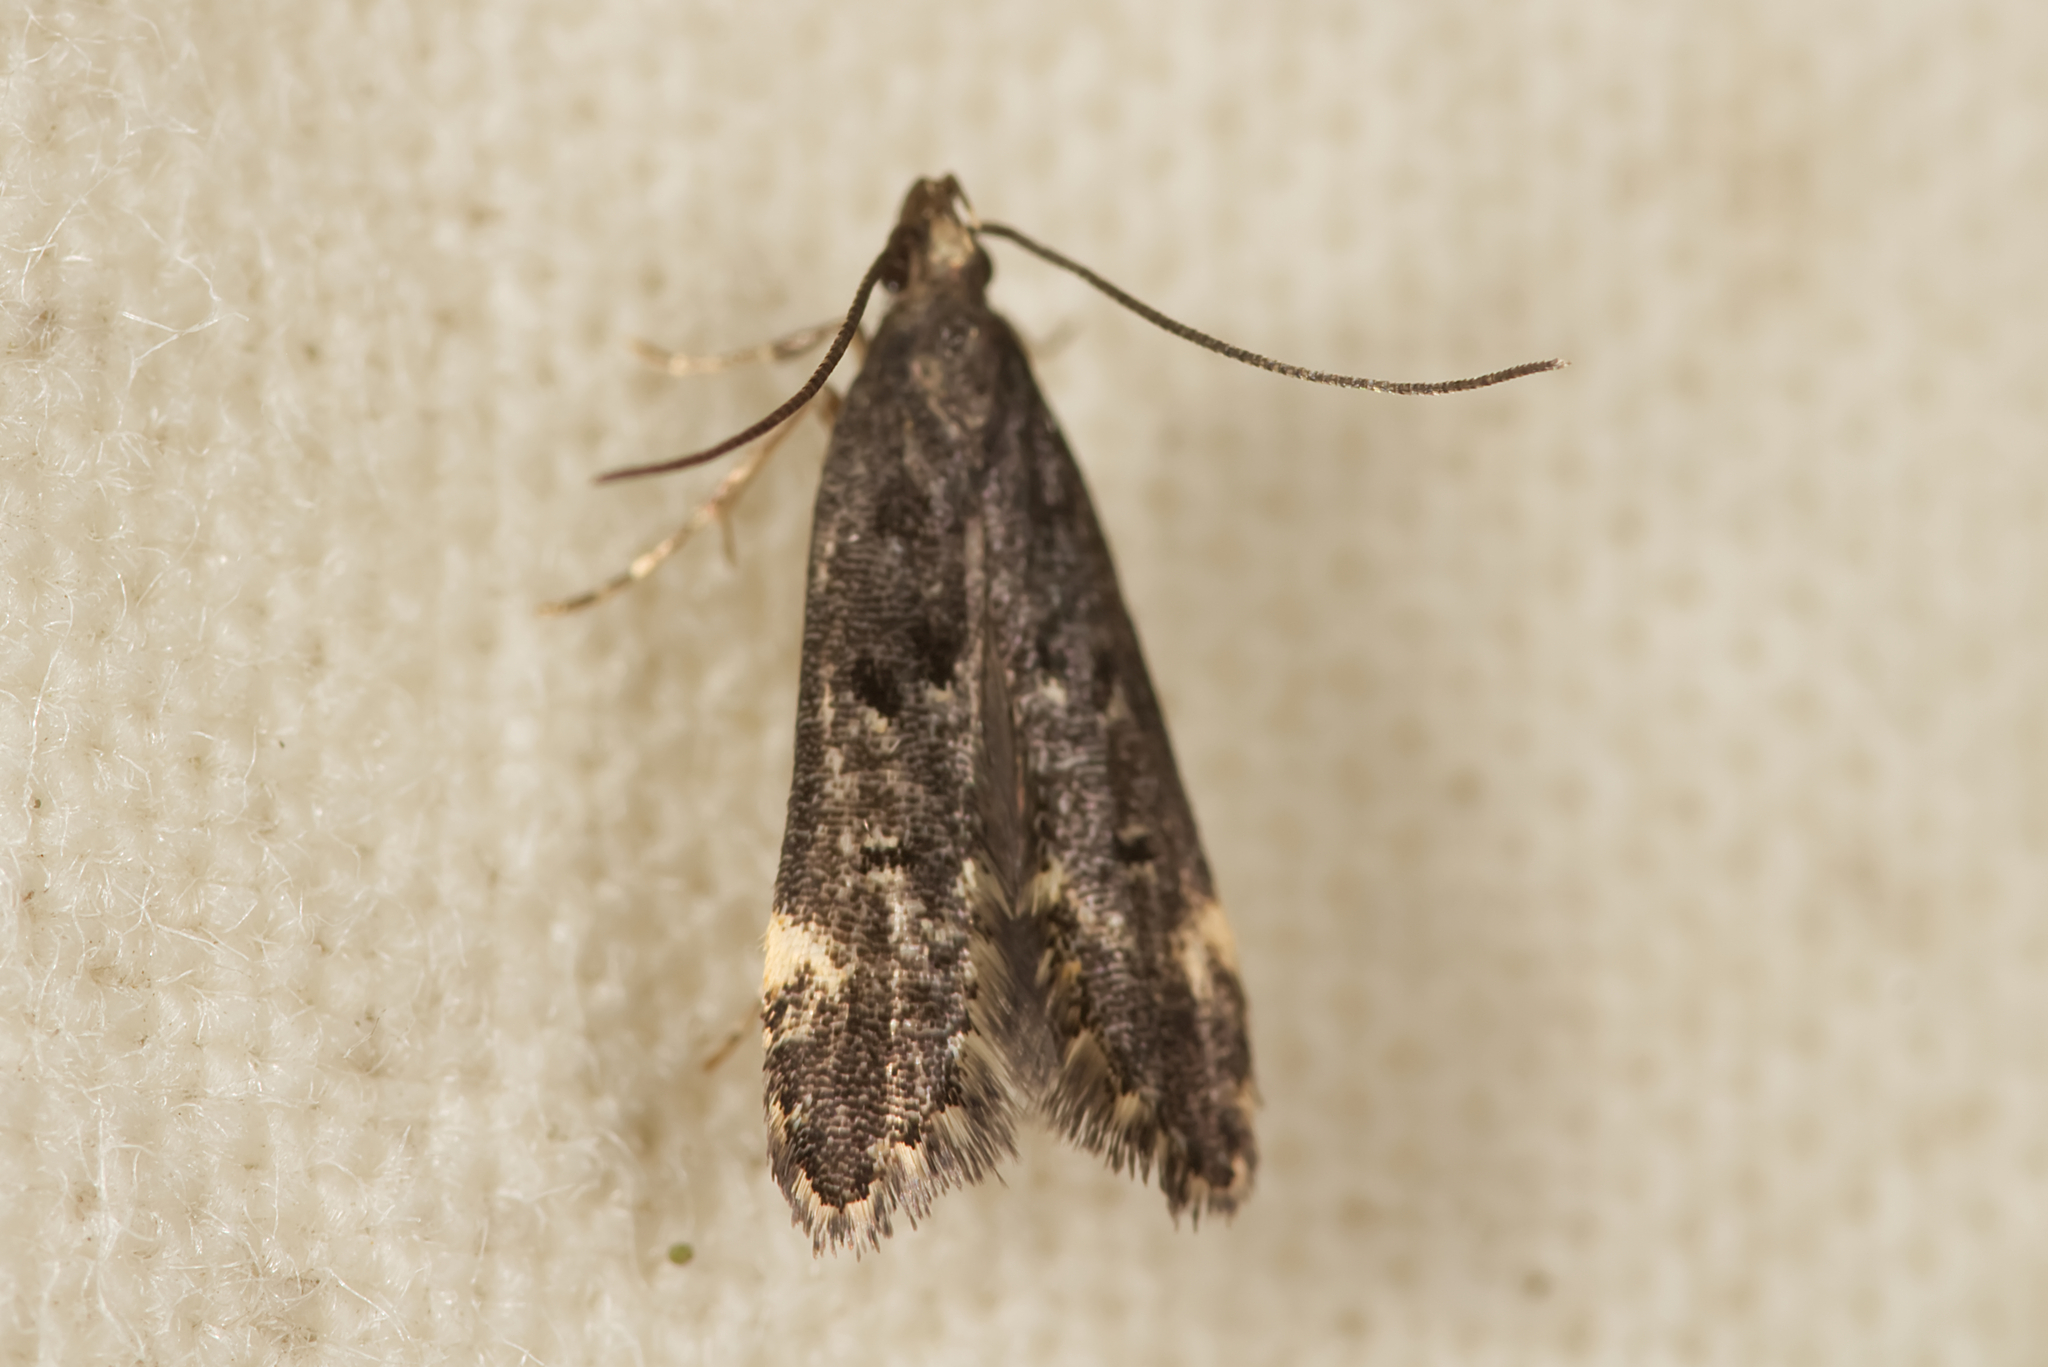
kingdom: Animalia
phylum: Arthropoda
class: Insecta
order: Lepidoptera
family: Gelechiidae
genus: Acanthophila
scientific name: Acanthophila alacella
